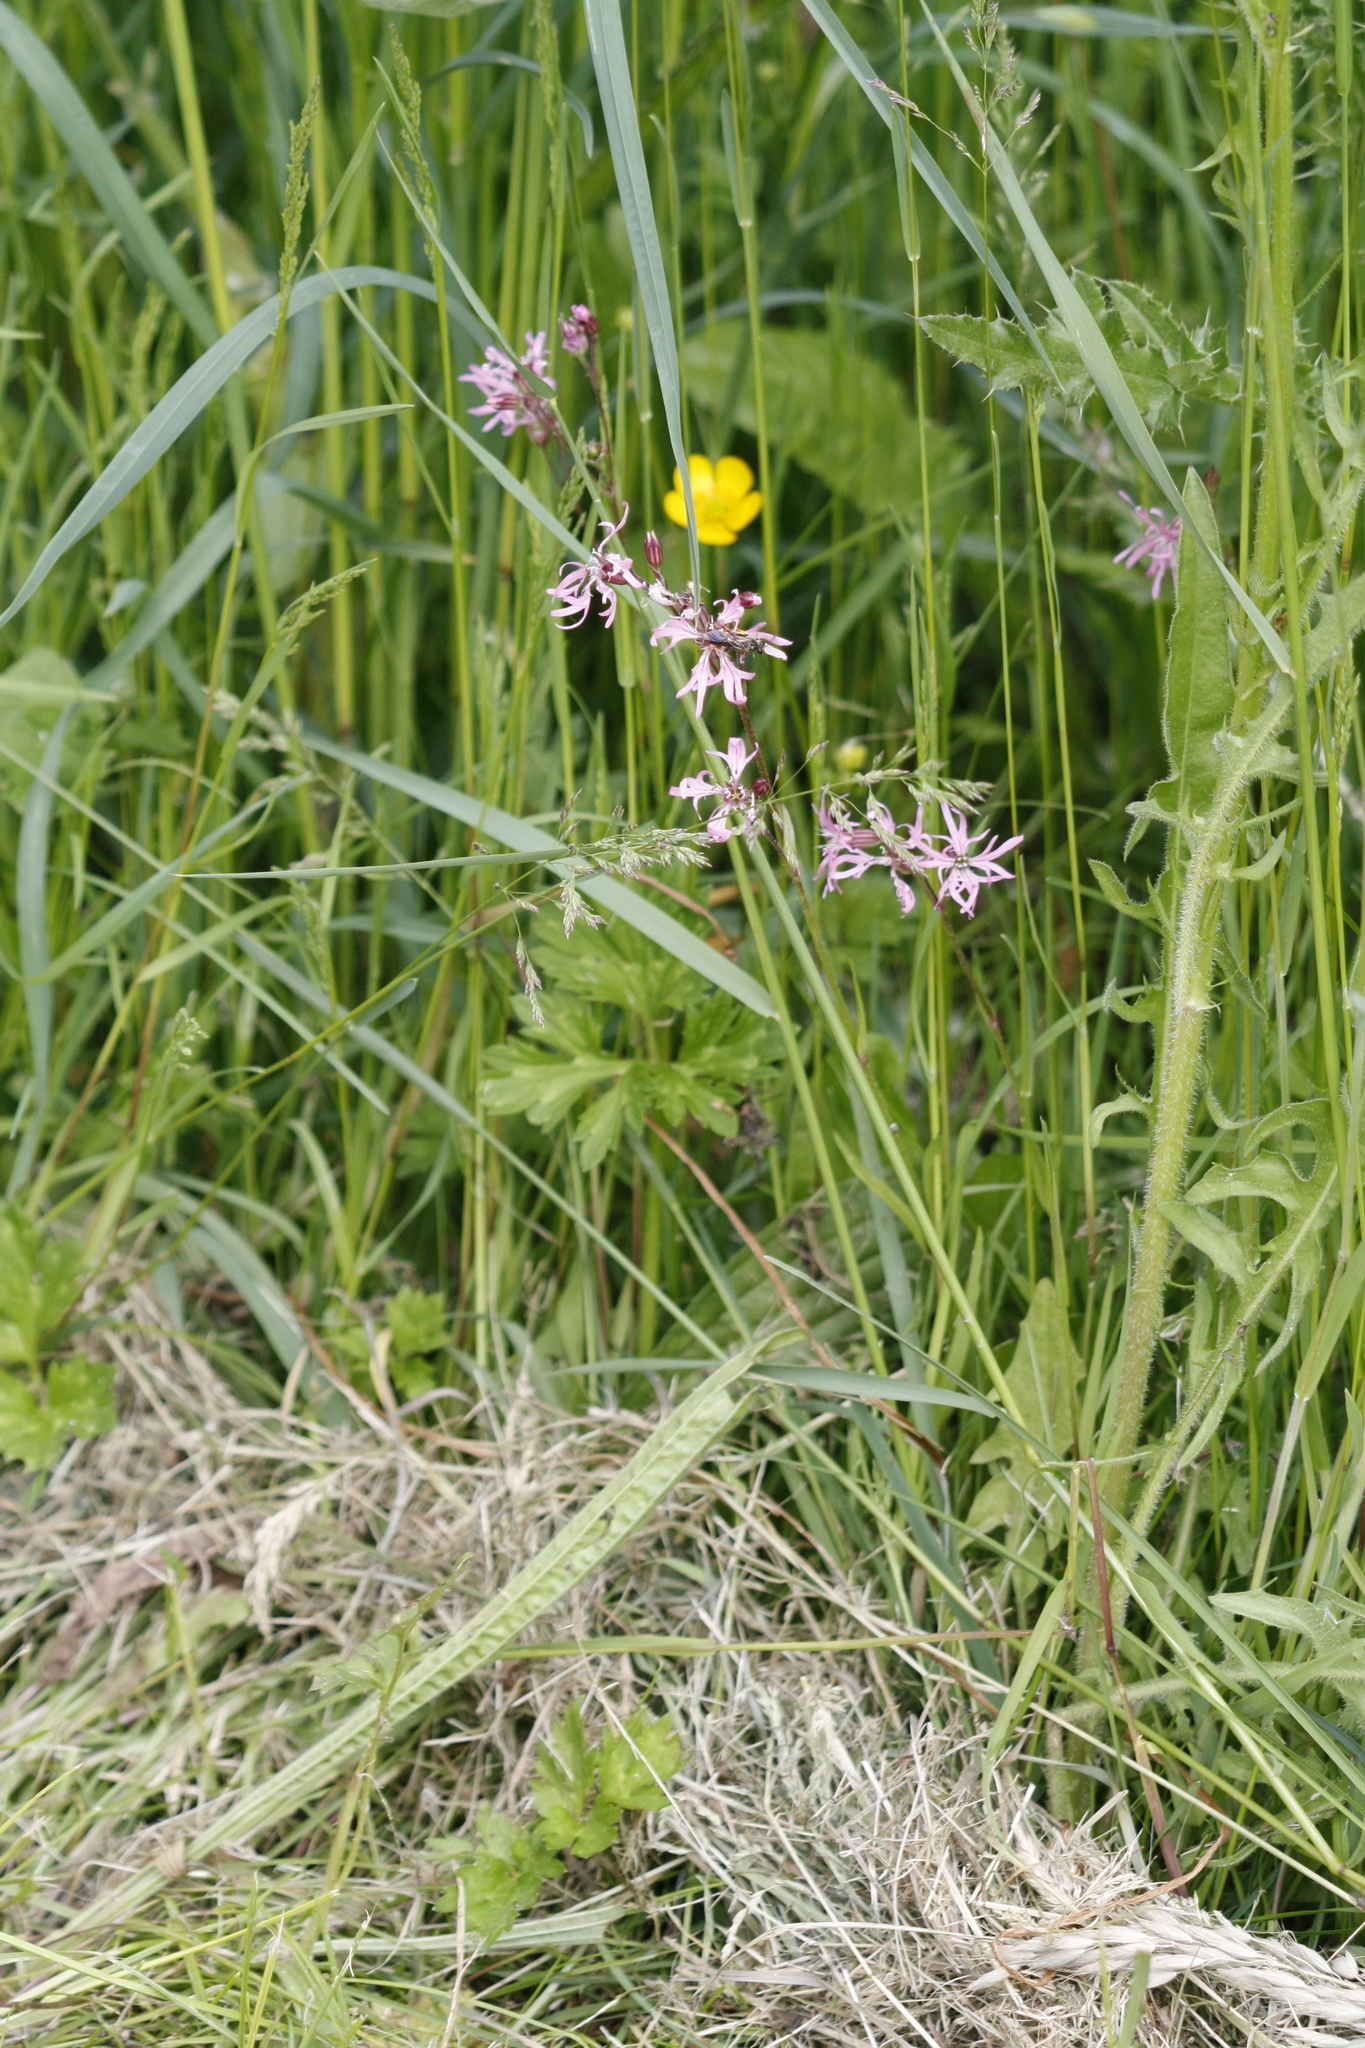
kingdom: Plantae
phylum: Tracheophyta
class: Magnoliopsida
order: Caryophyllales
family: Caryophyllaceae
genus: Silene
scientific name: Silene flos-cuculi
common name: Ragged-robin
